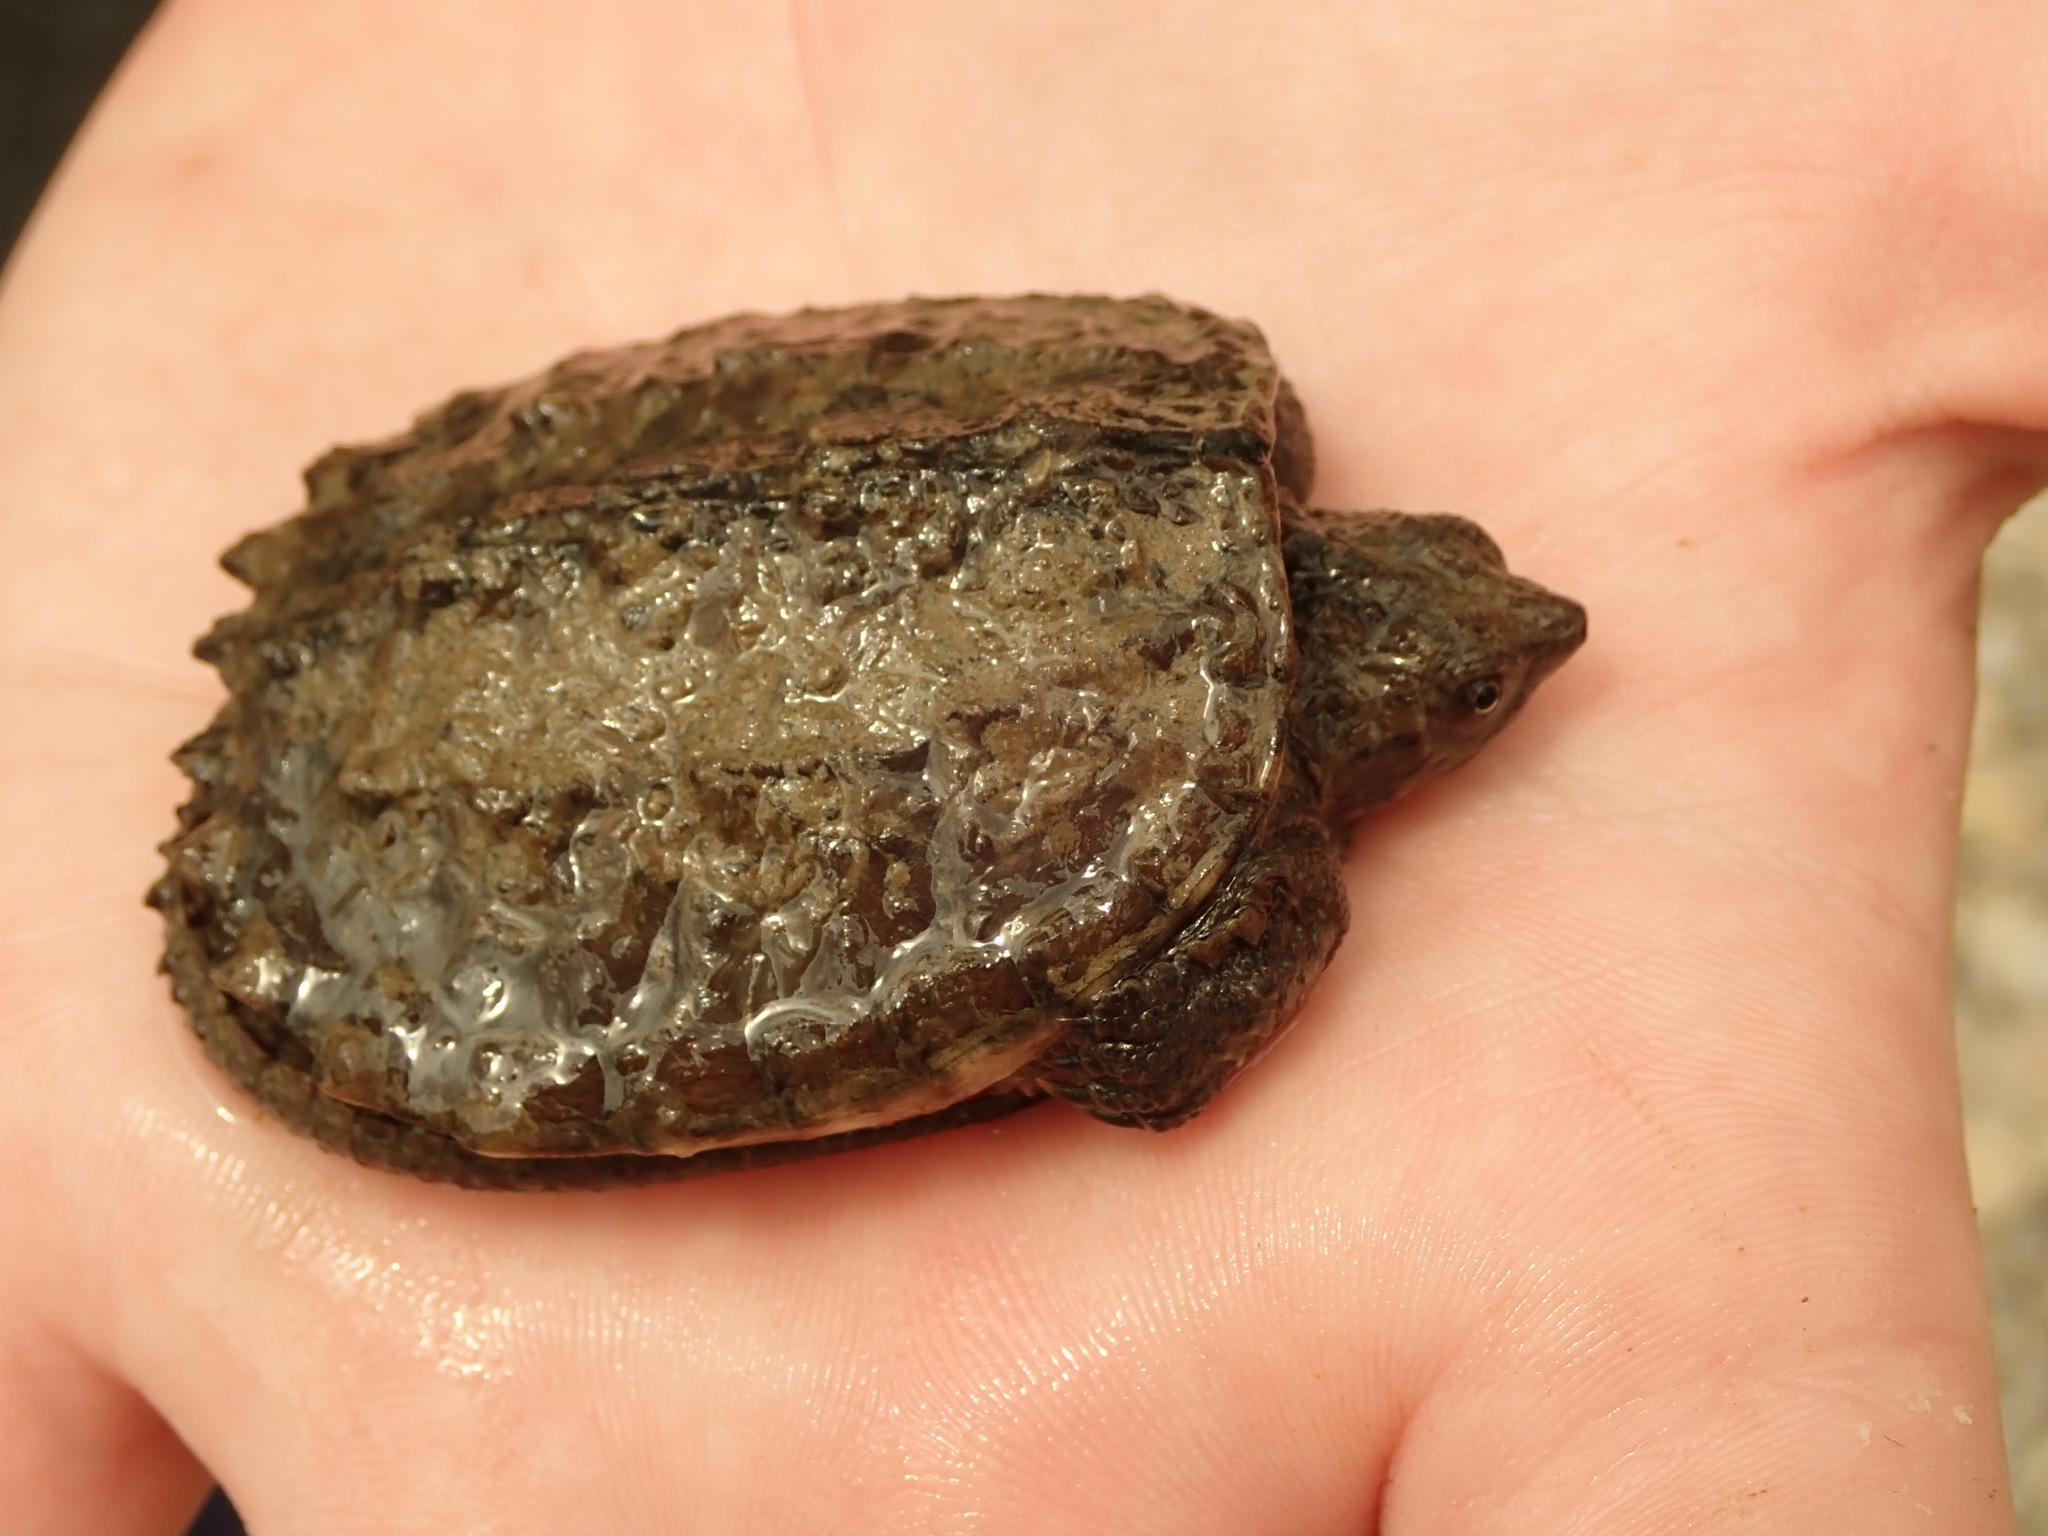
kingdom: Animalia
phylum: Chordata
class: Testudines
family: Chelydridae
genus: Chelydra
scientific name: Chelydra serpentina
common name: Common snapping turtle
